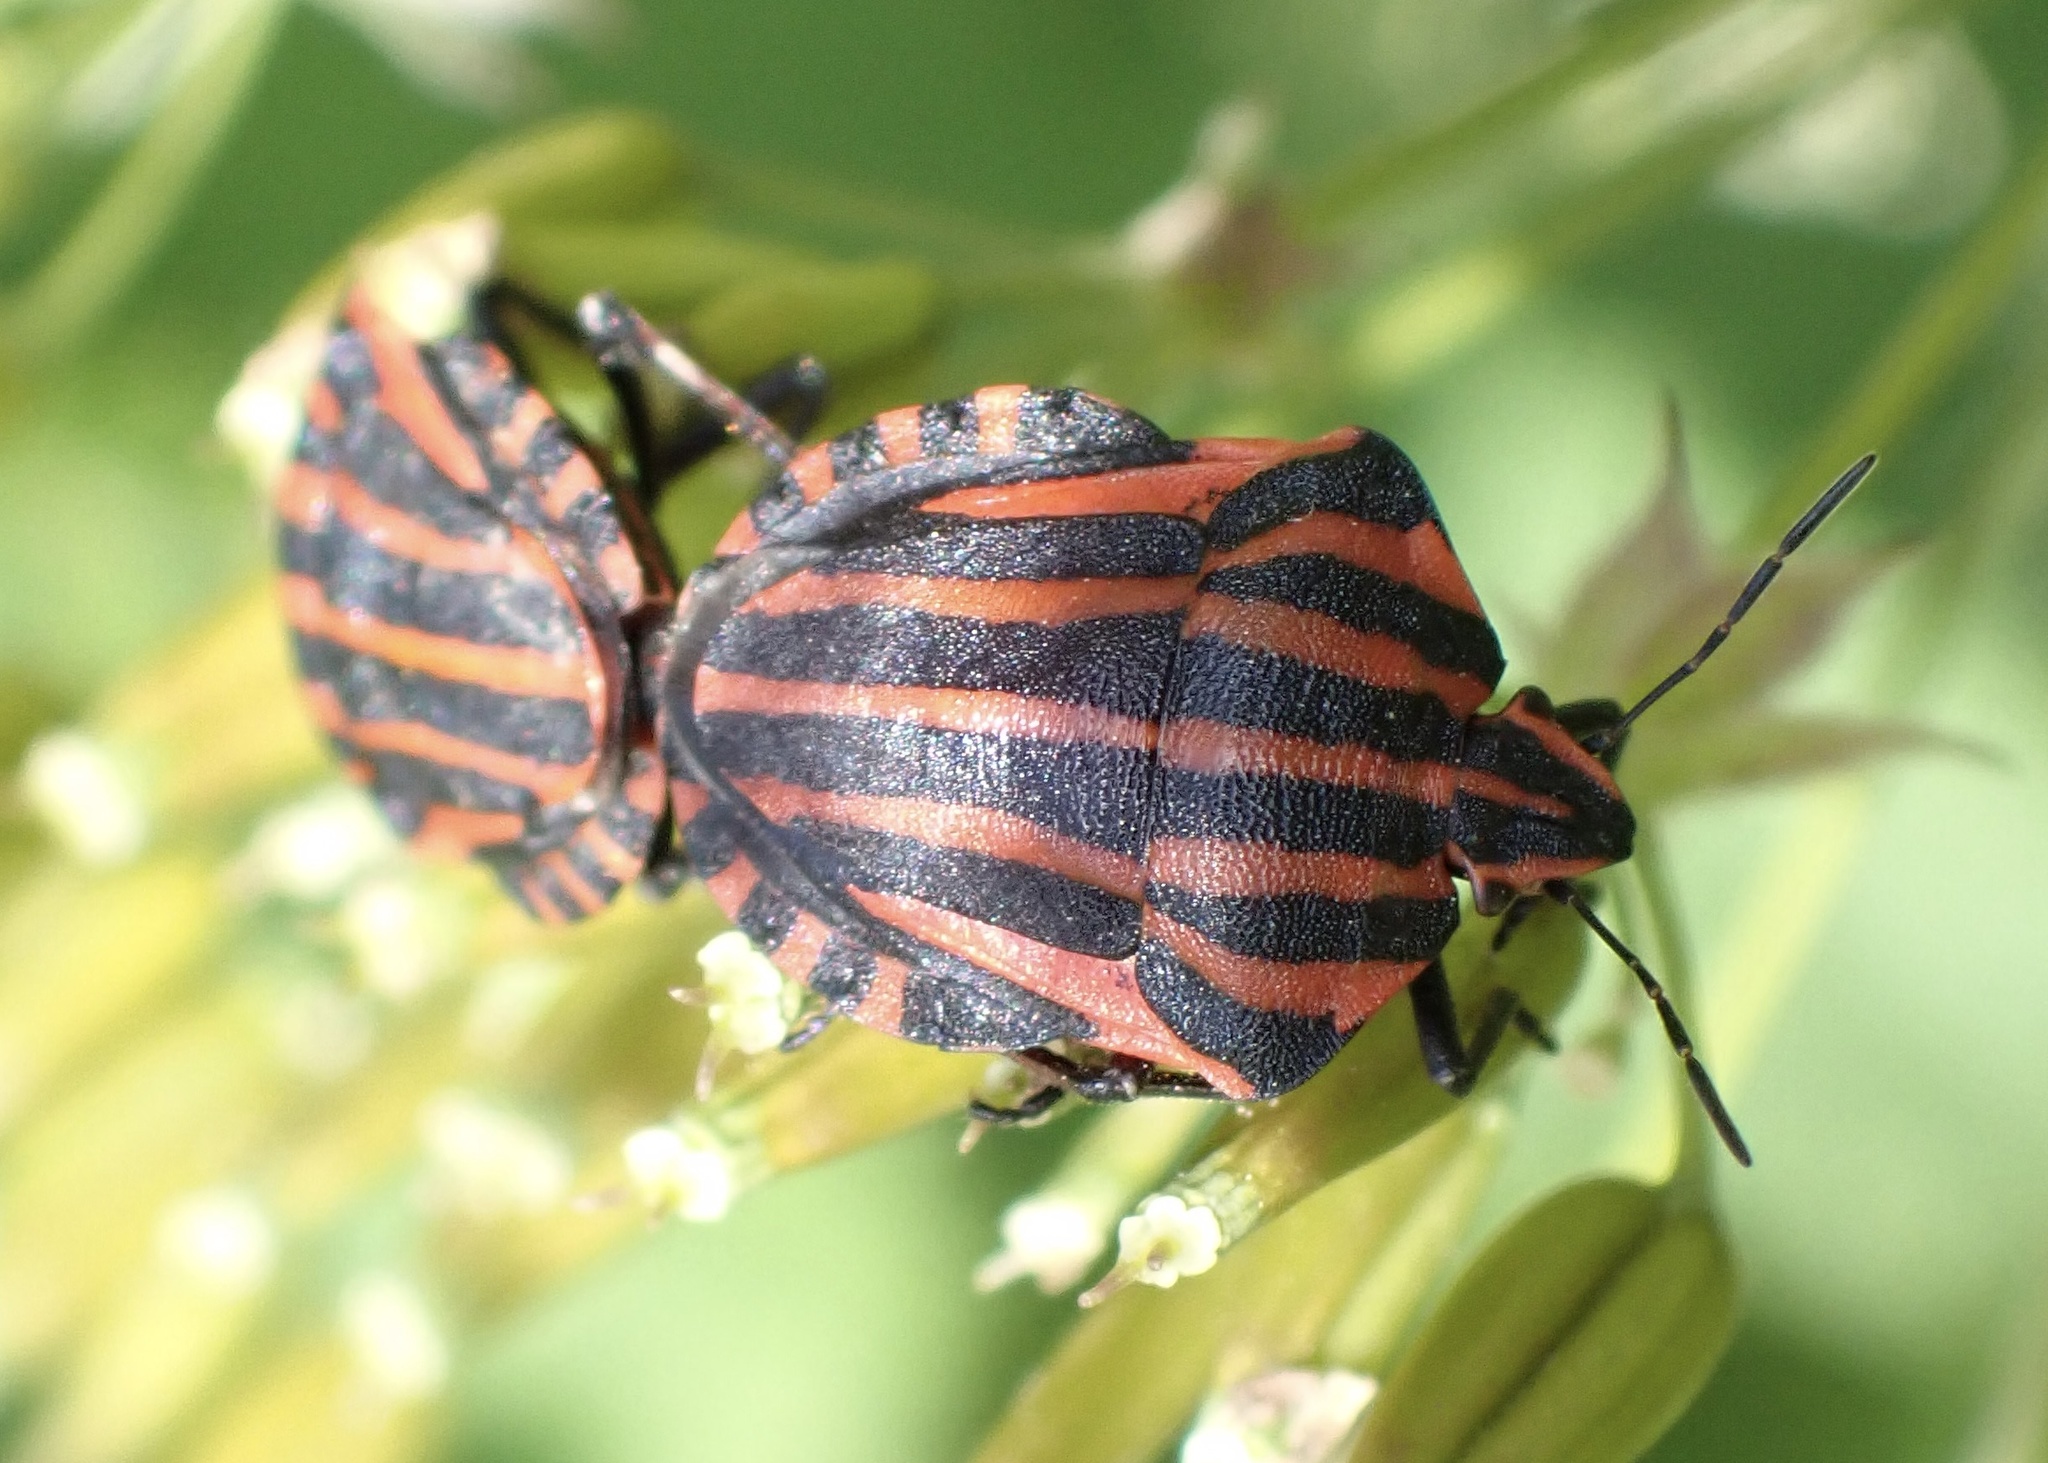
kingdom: Animalia
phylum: Arthropoda
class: Insecta
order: Hemiptera
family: Pentatomidae
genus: Graphosoma
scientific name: Graphosoma italicum
